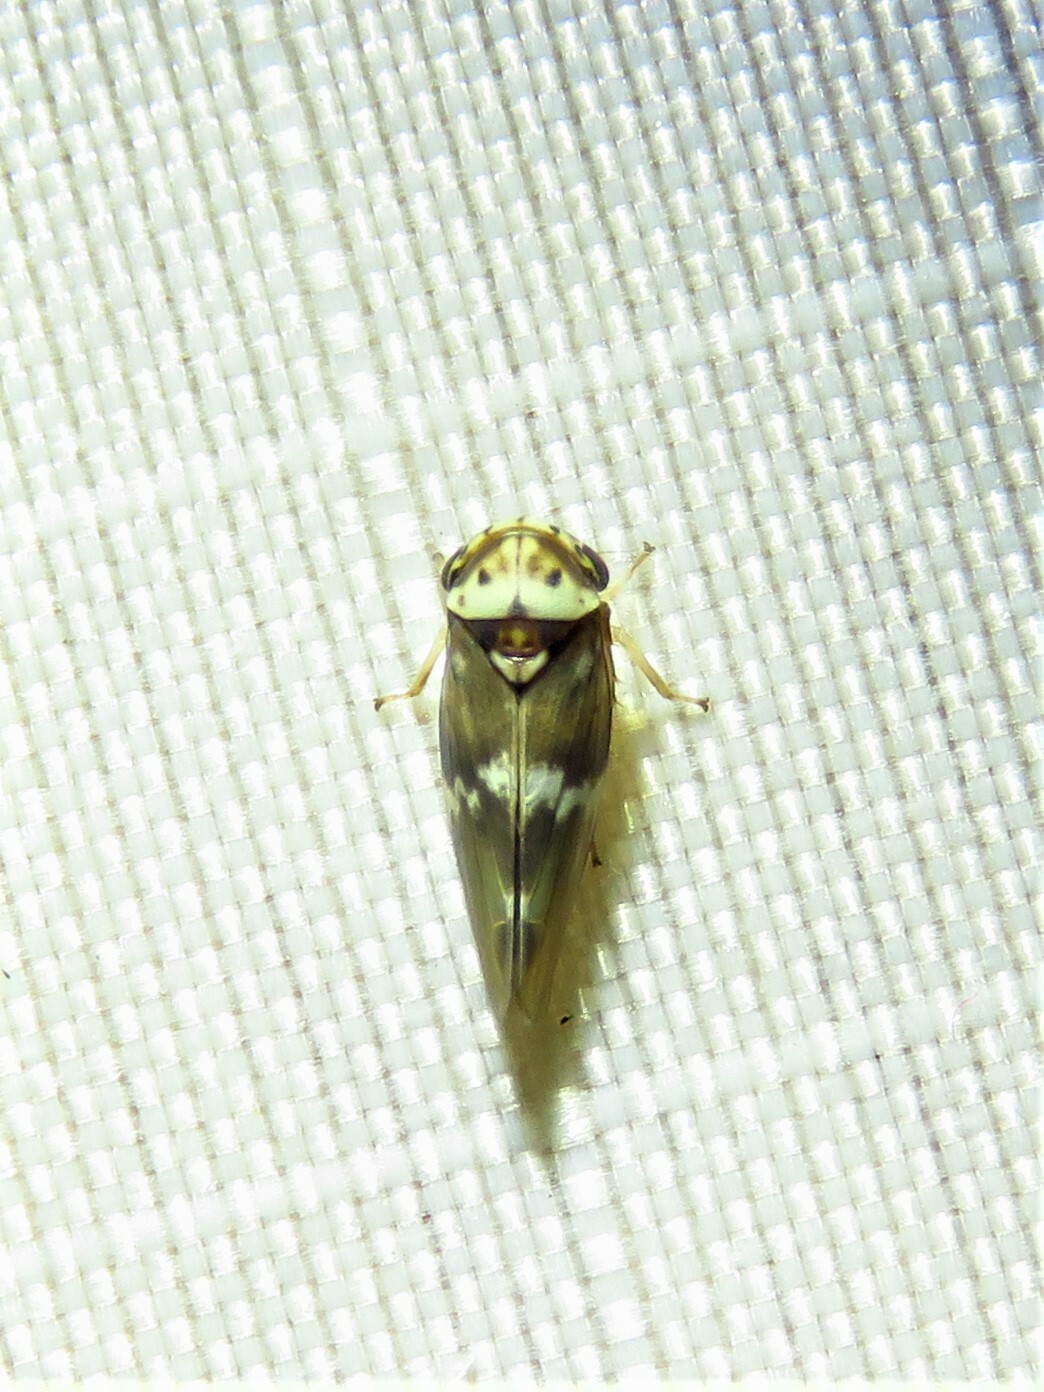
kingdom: Animalia
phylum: Arthropoda
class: Insecta
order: Hemiptera
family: Cicadellidae
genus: Agalliopsis
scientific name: Agalliopsis cervina
